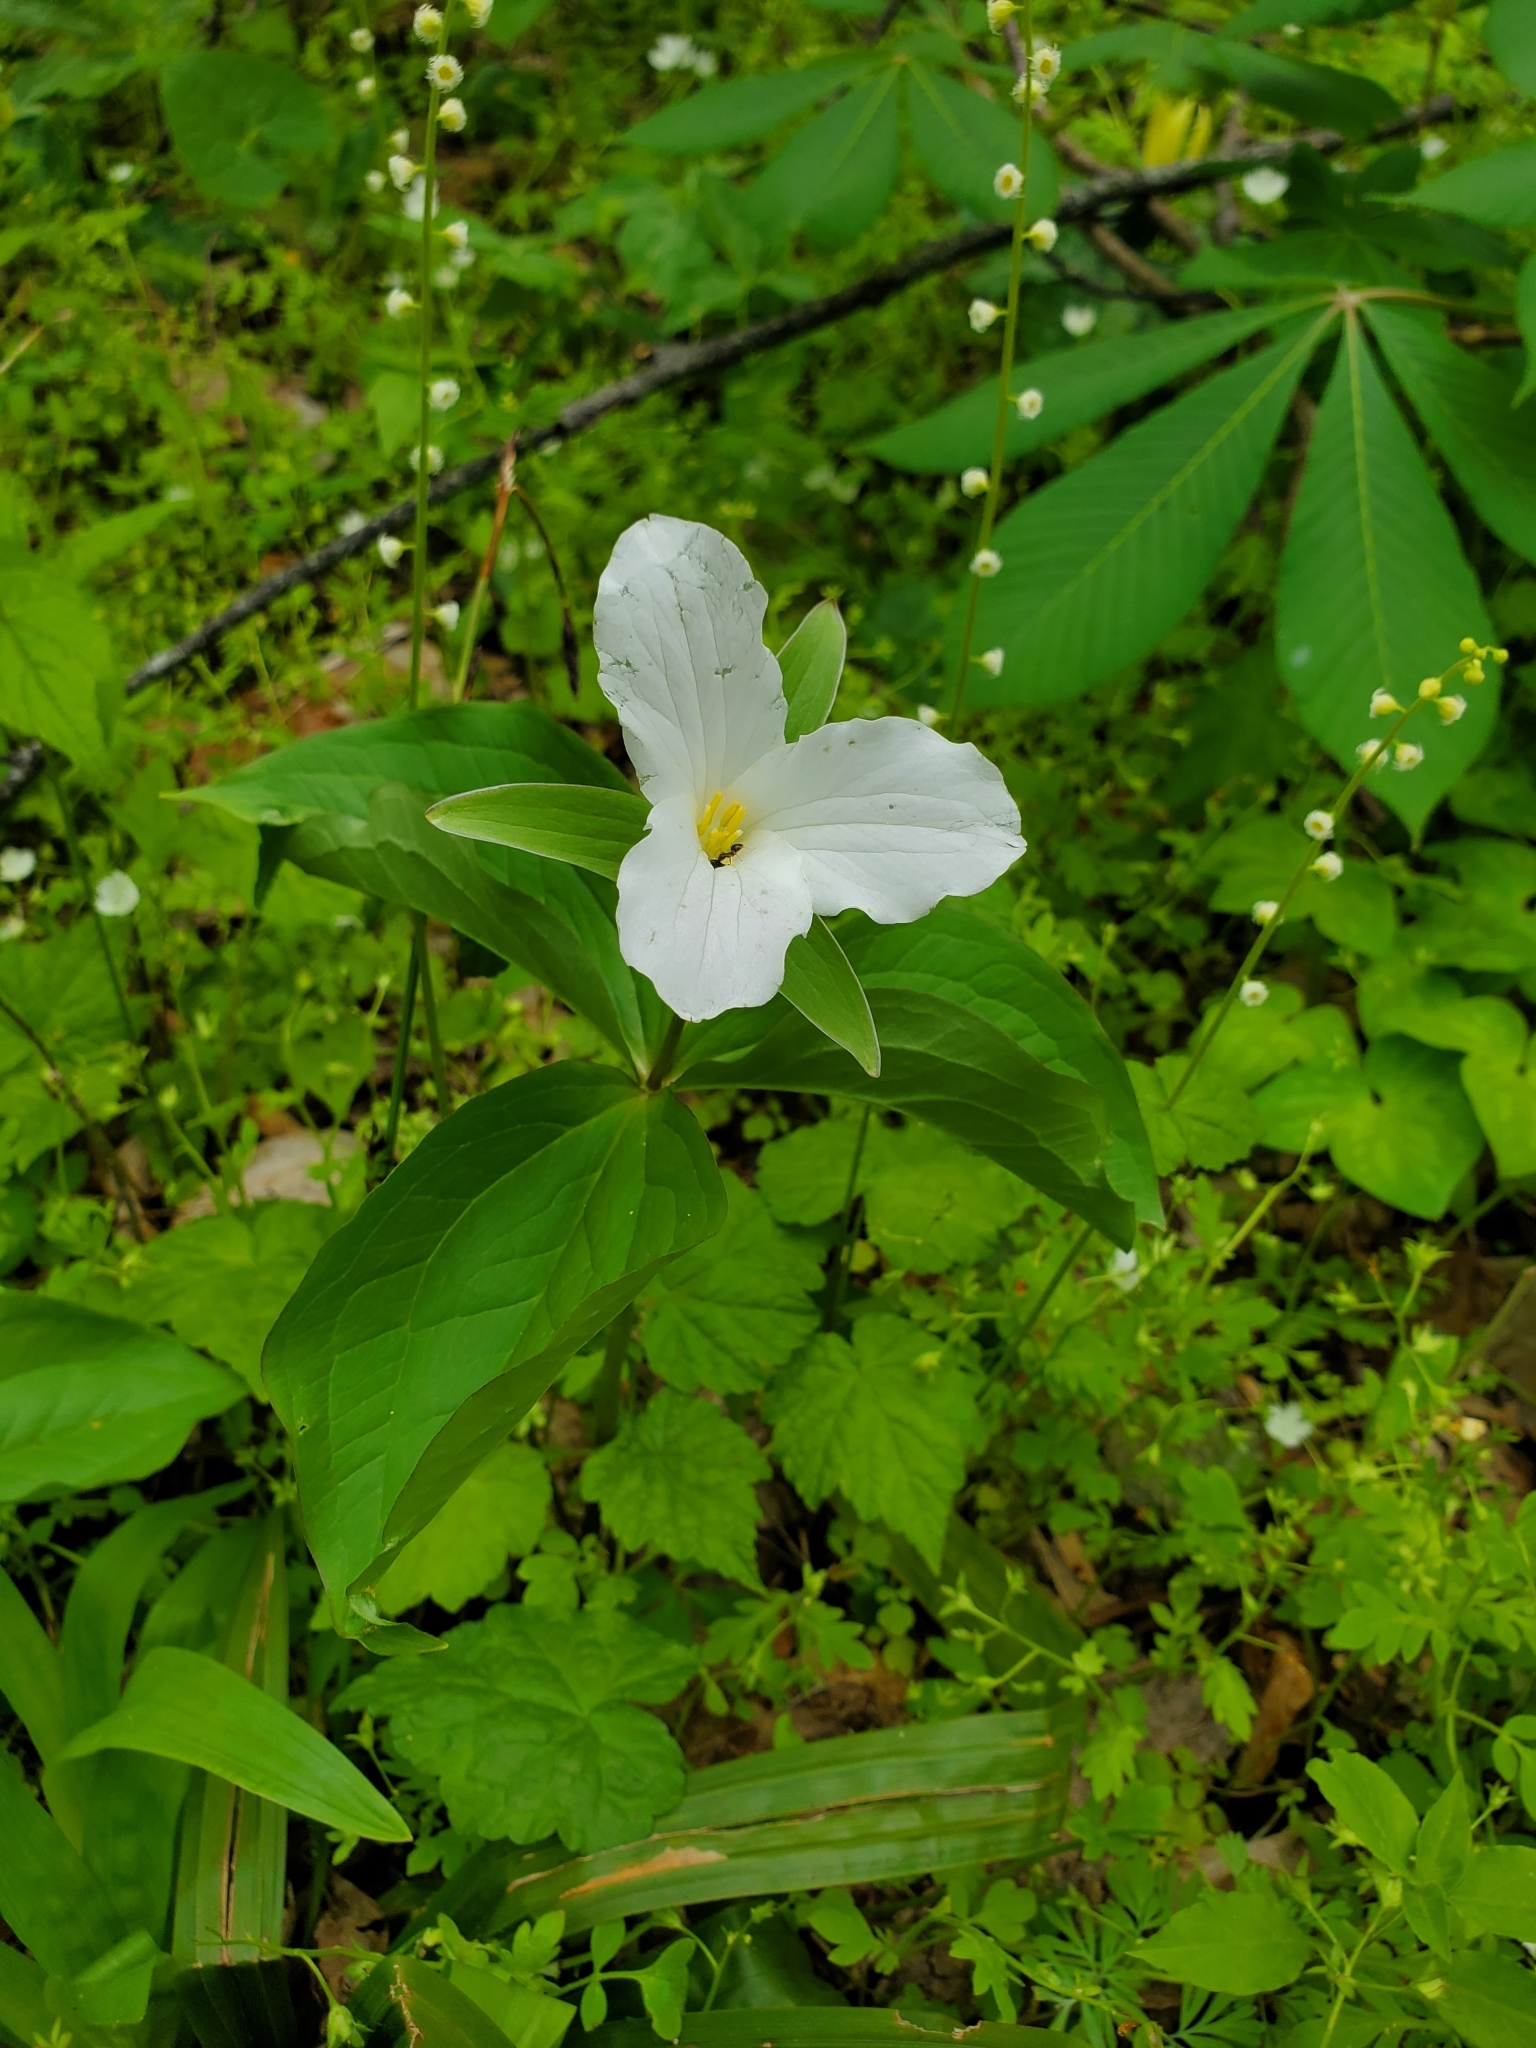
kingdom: Plantae
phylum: Tracheophyta
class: Liliopsida
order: Liliales
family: Melanthiaceae
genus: Trillium
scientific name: Trillium grandiflorum
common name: Great white trillium
